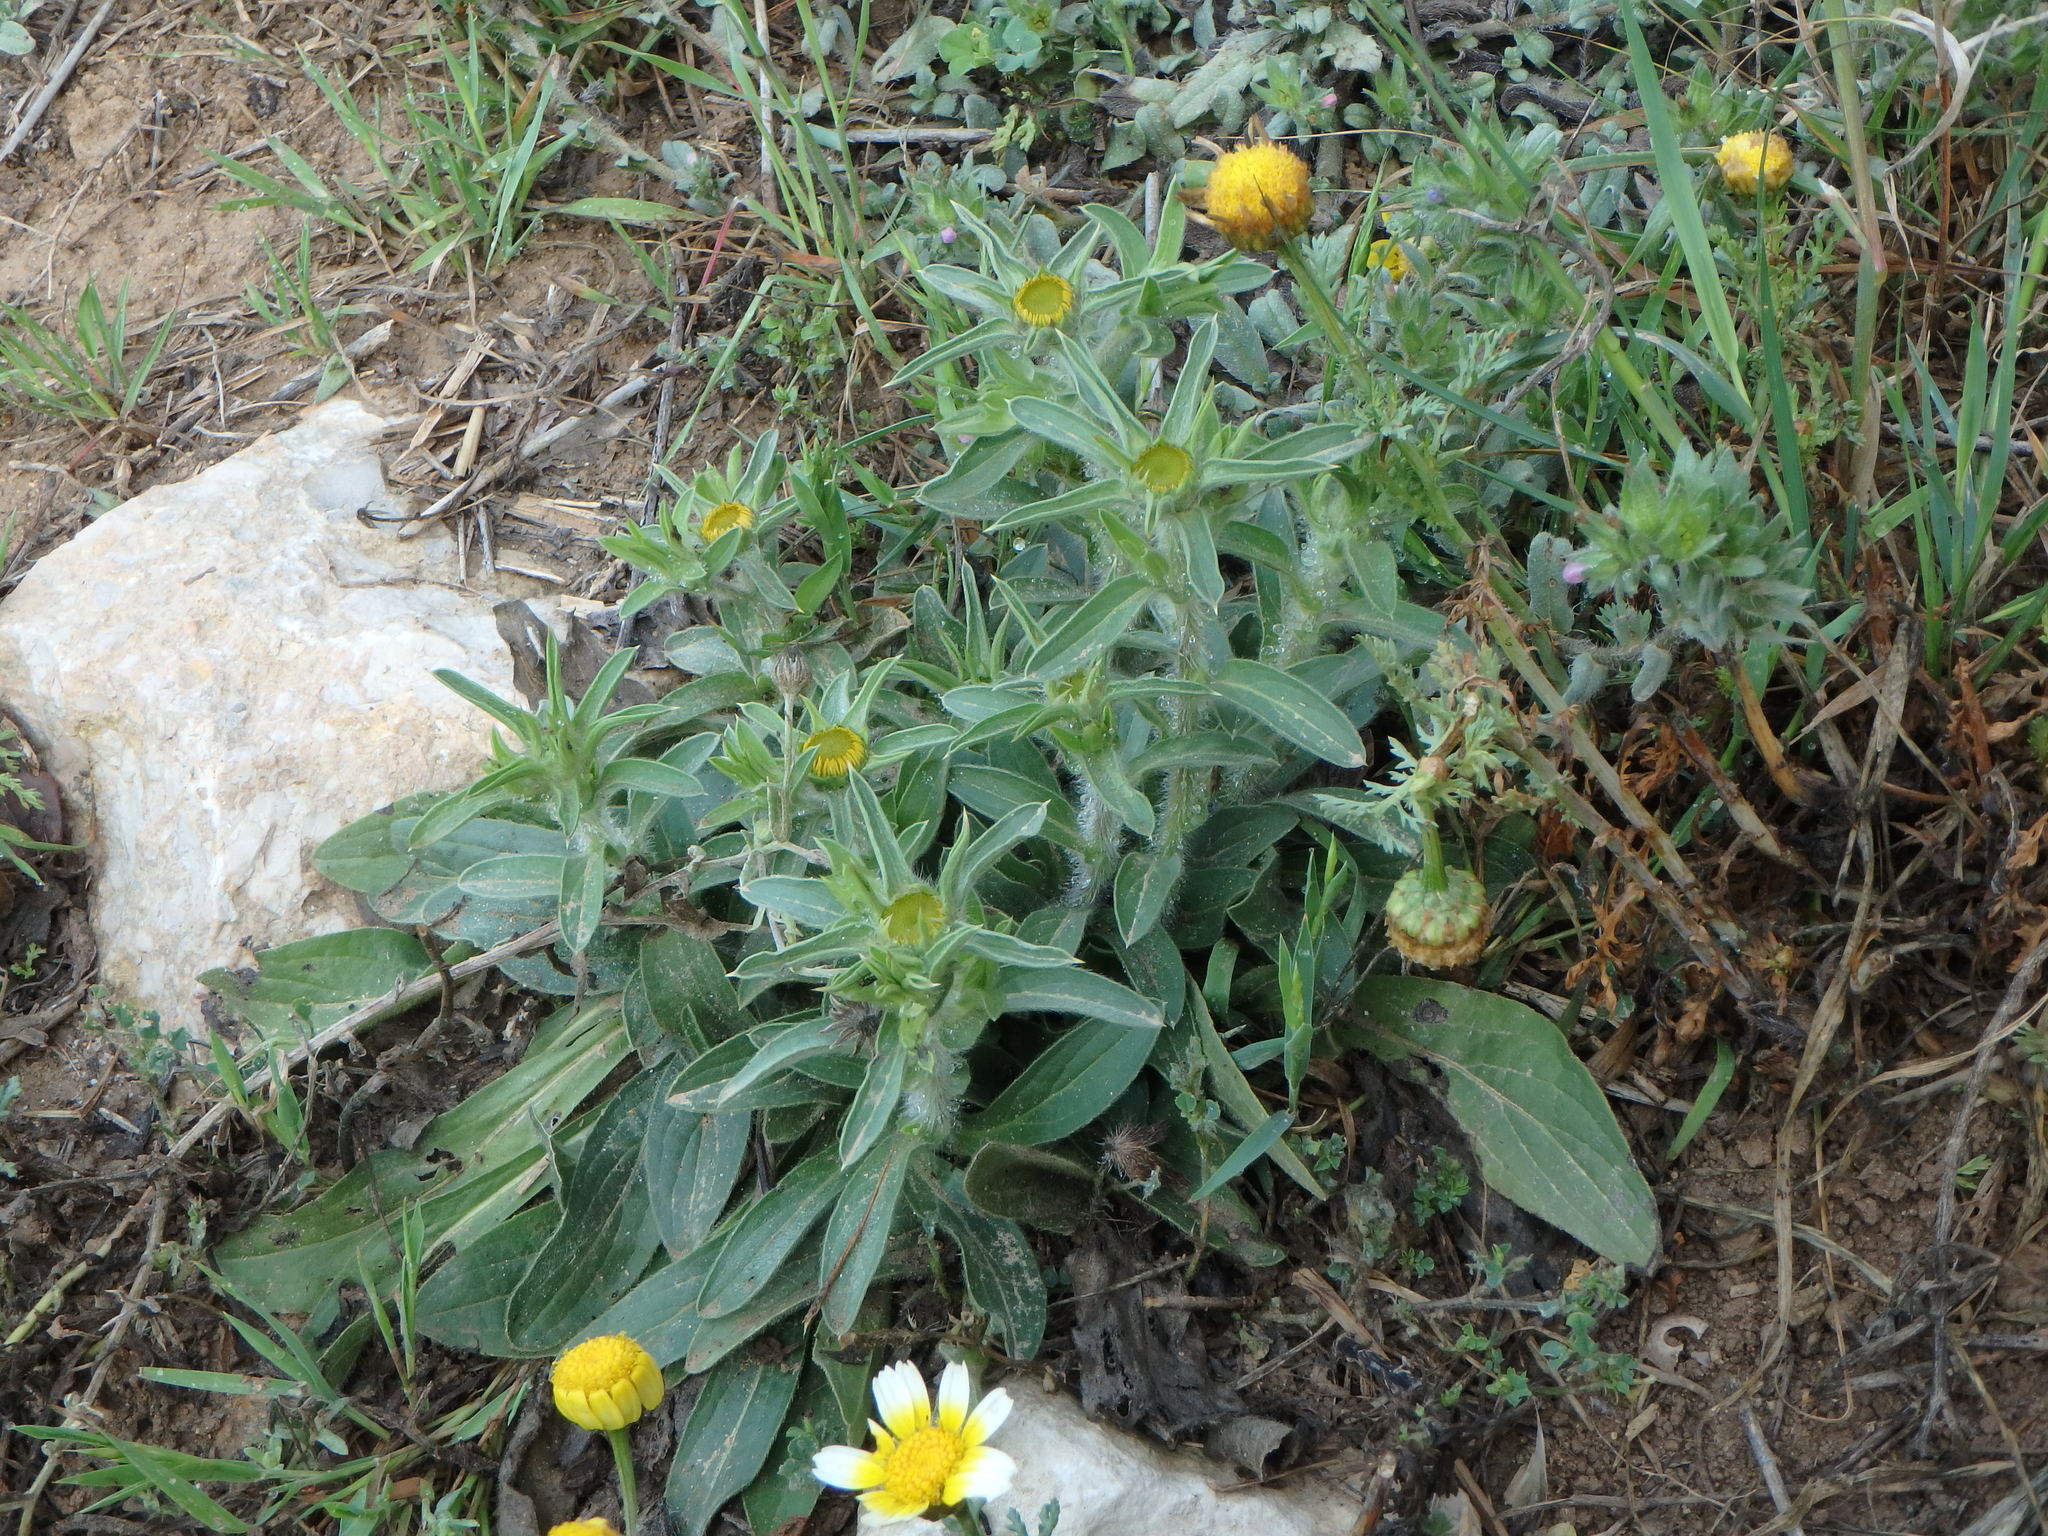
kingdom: Plantae
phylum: Tracheophyta
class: Magnoliopsida
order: Asterales
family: Asteraceae
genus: Pallenis
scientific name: Pallenis spinosa
